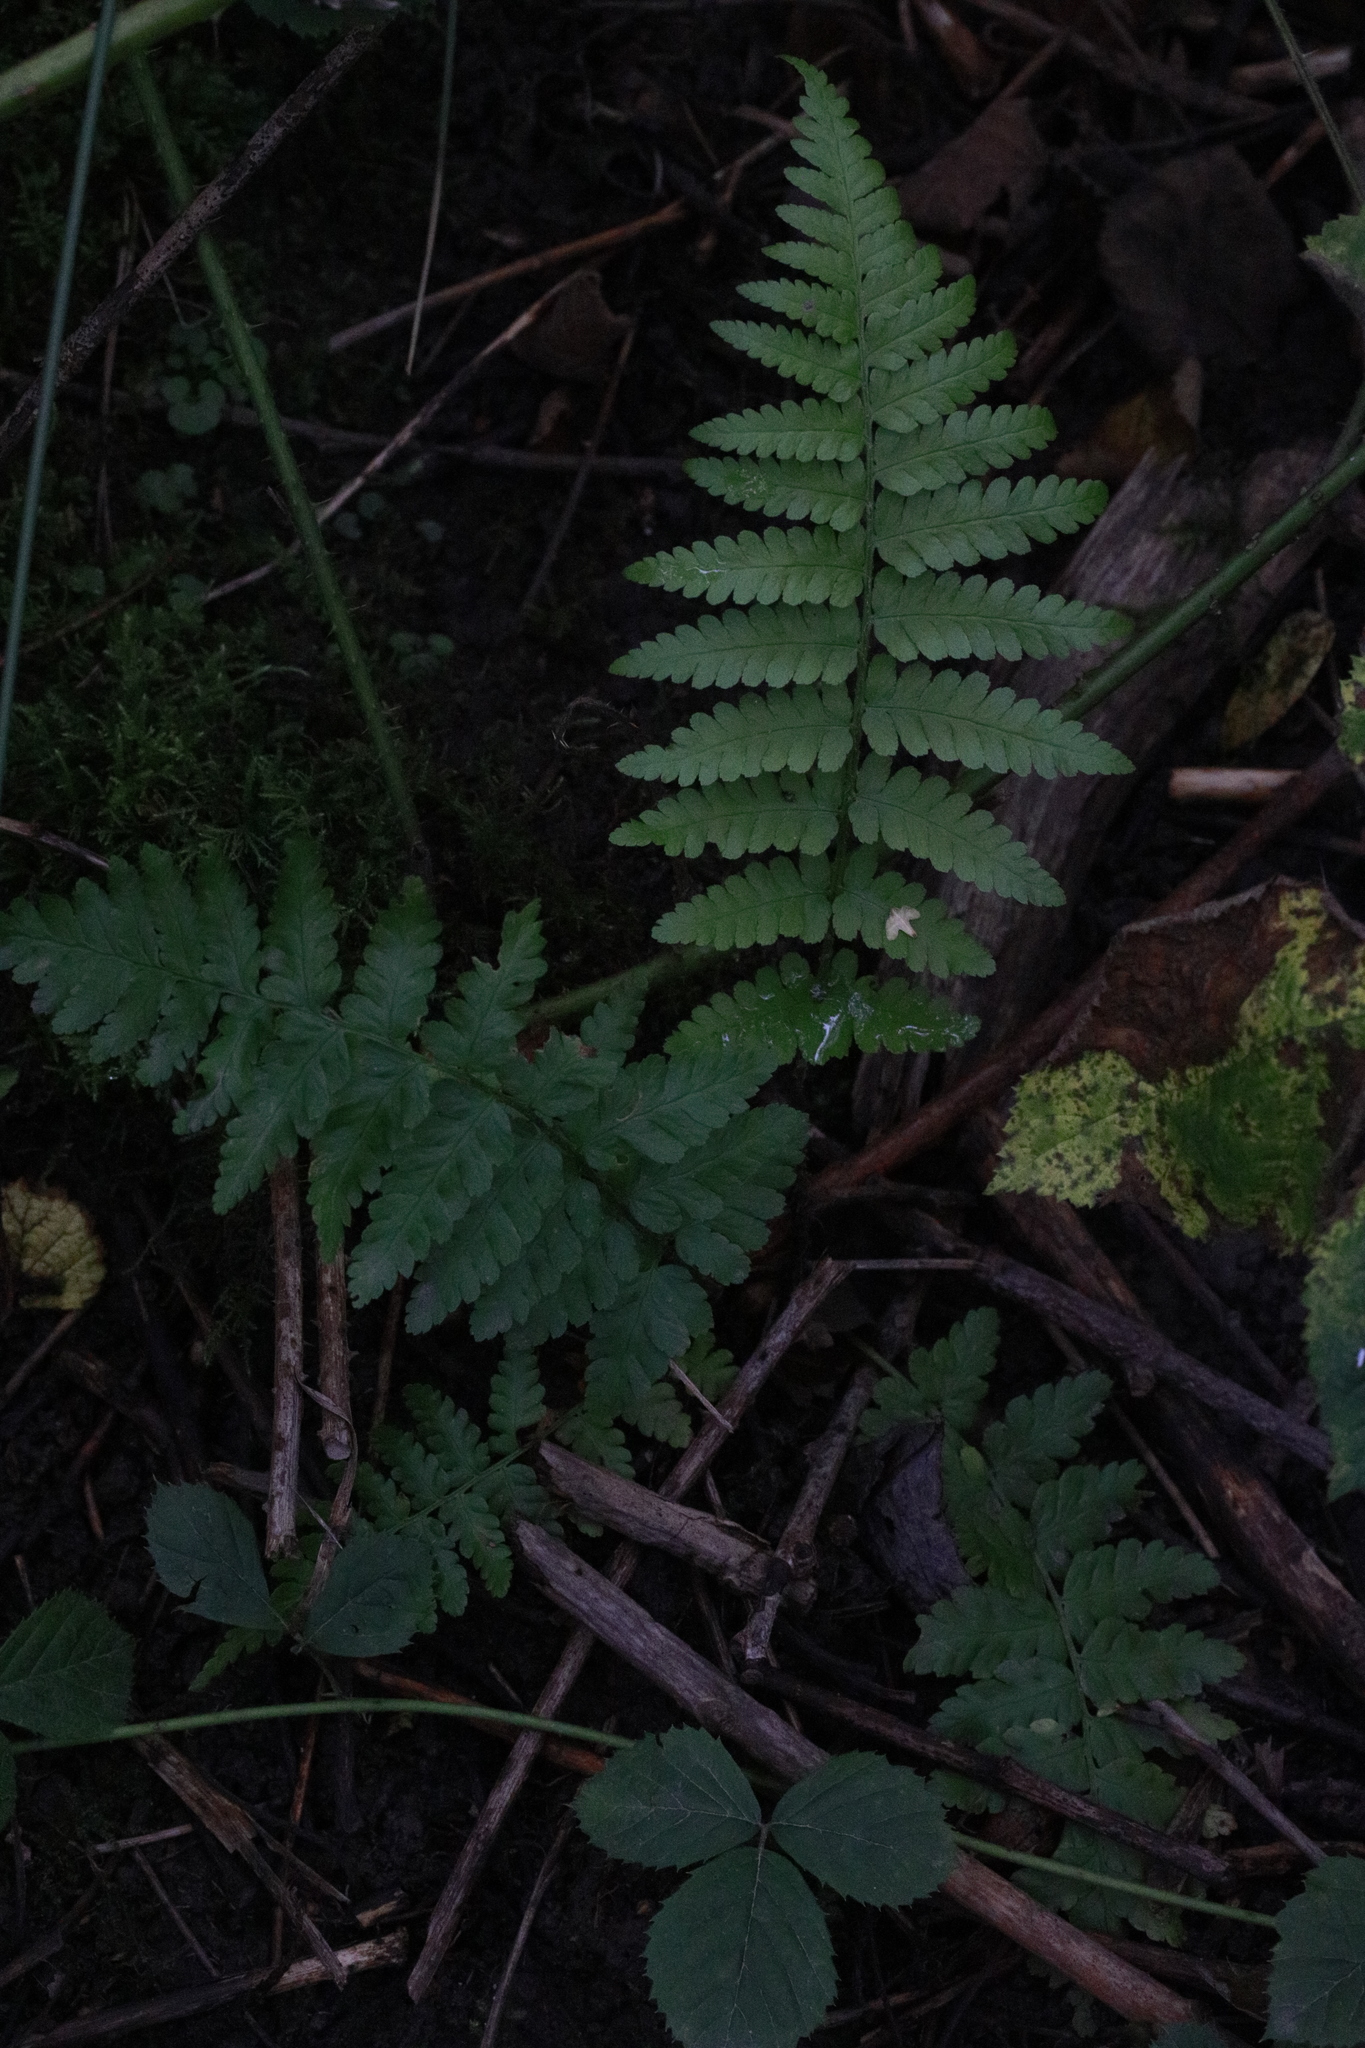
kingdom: Plantae
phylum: Tracheophyta
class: Polypodiopsida
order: Polypodiales
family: Dryopteridaceae
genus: Dryopteris
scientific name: Dryopteris filix-mas
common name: Male fern
